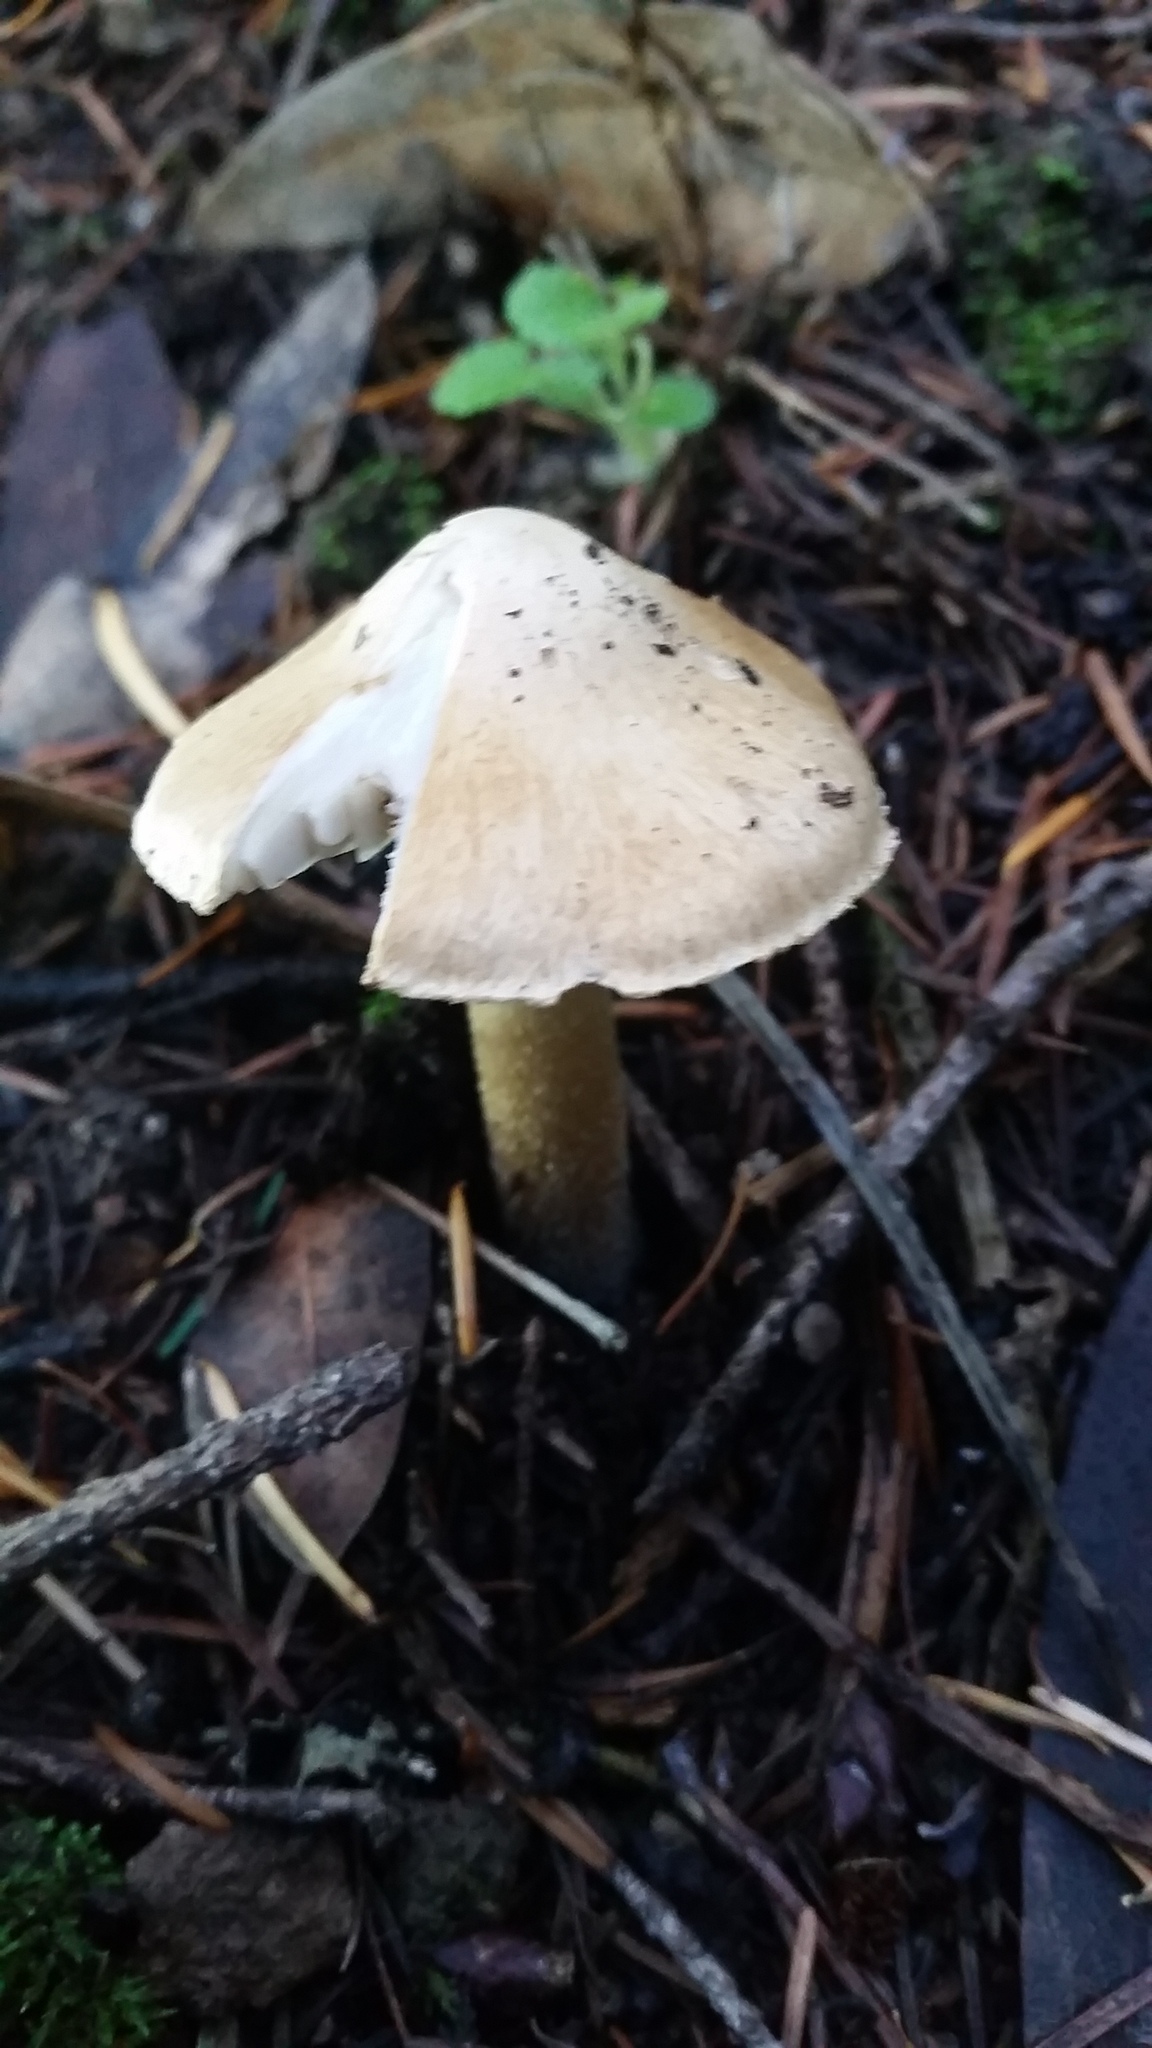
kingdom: Fungi
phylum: Basidiomycota
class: Agaricomycetes
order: Agaricales
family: Inocybaceae
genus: Pseudosperma
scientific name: Pseudosperma sororium
